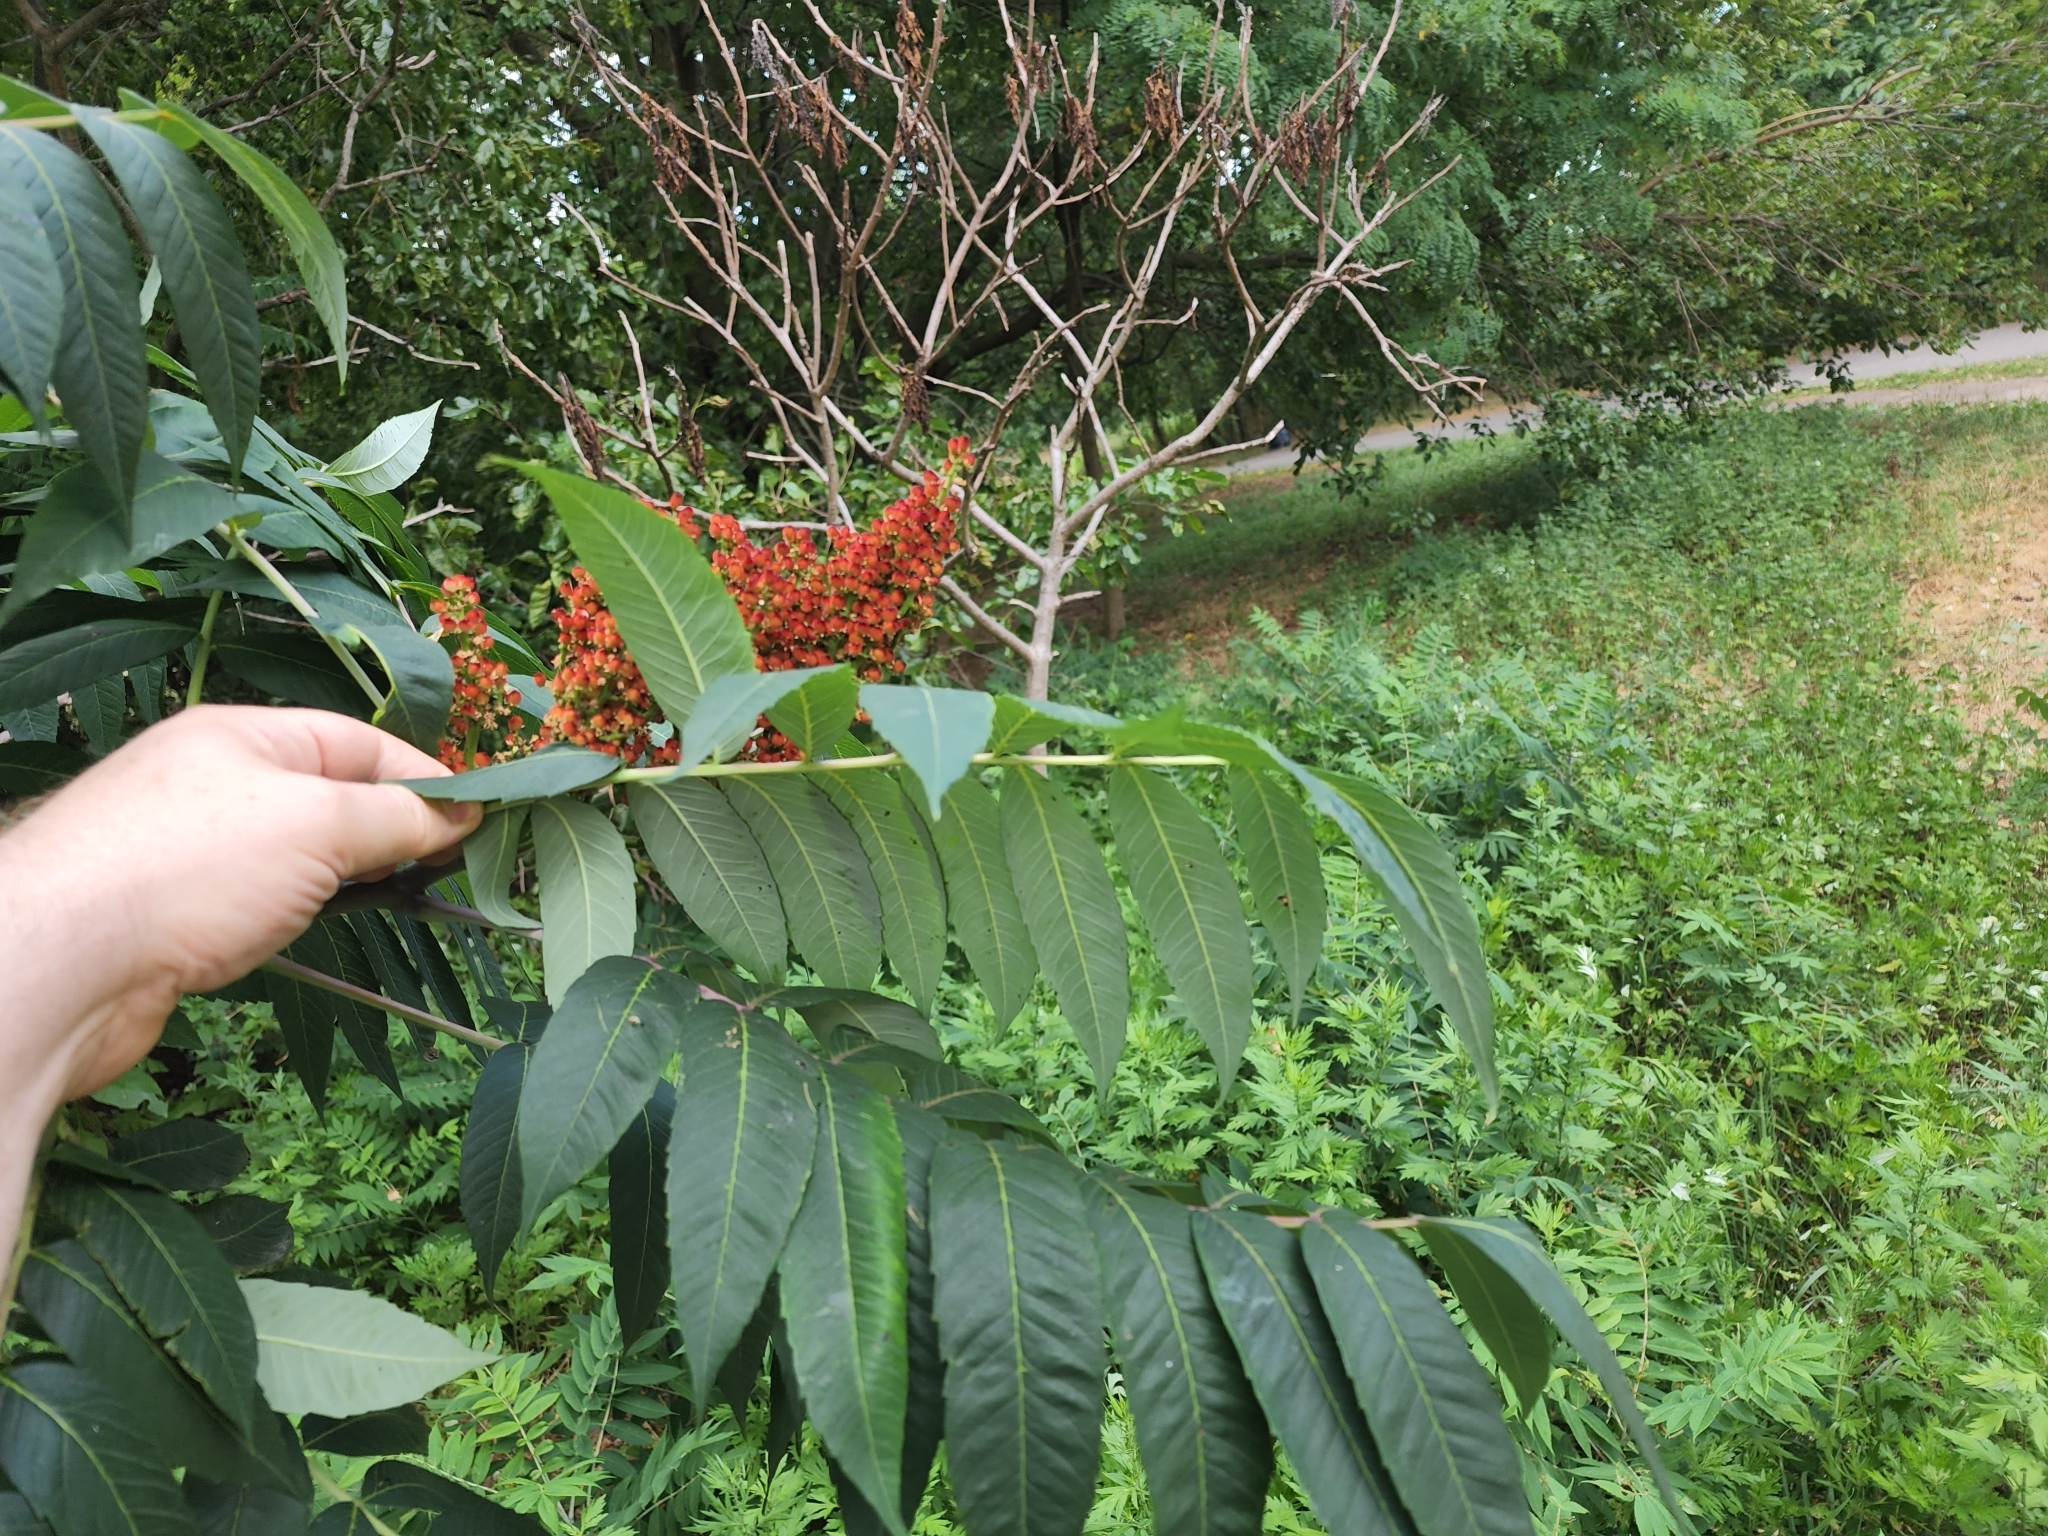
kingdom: Plantae
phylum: Tracheophyta
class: Magnoliopsida
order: Sapindales
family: Anacardiaceae
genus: Rhus
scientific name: Rhus glabra
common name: Scarlet sumac
